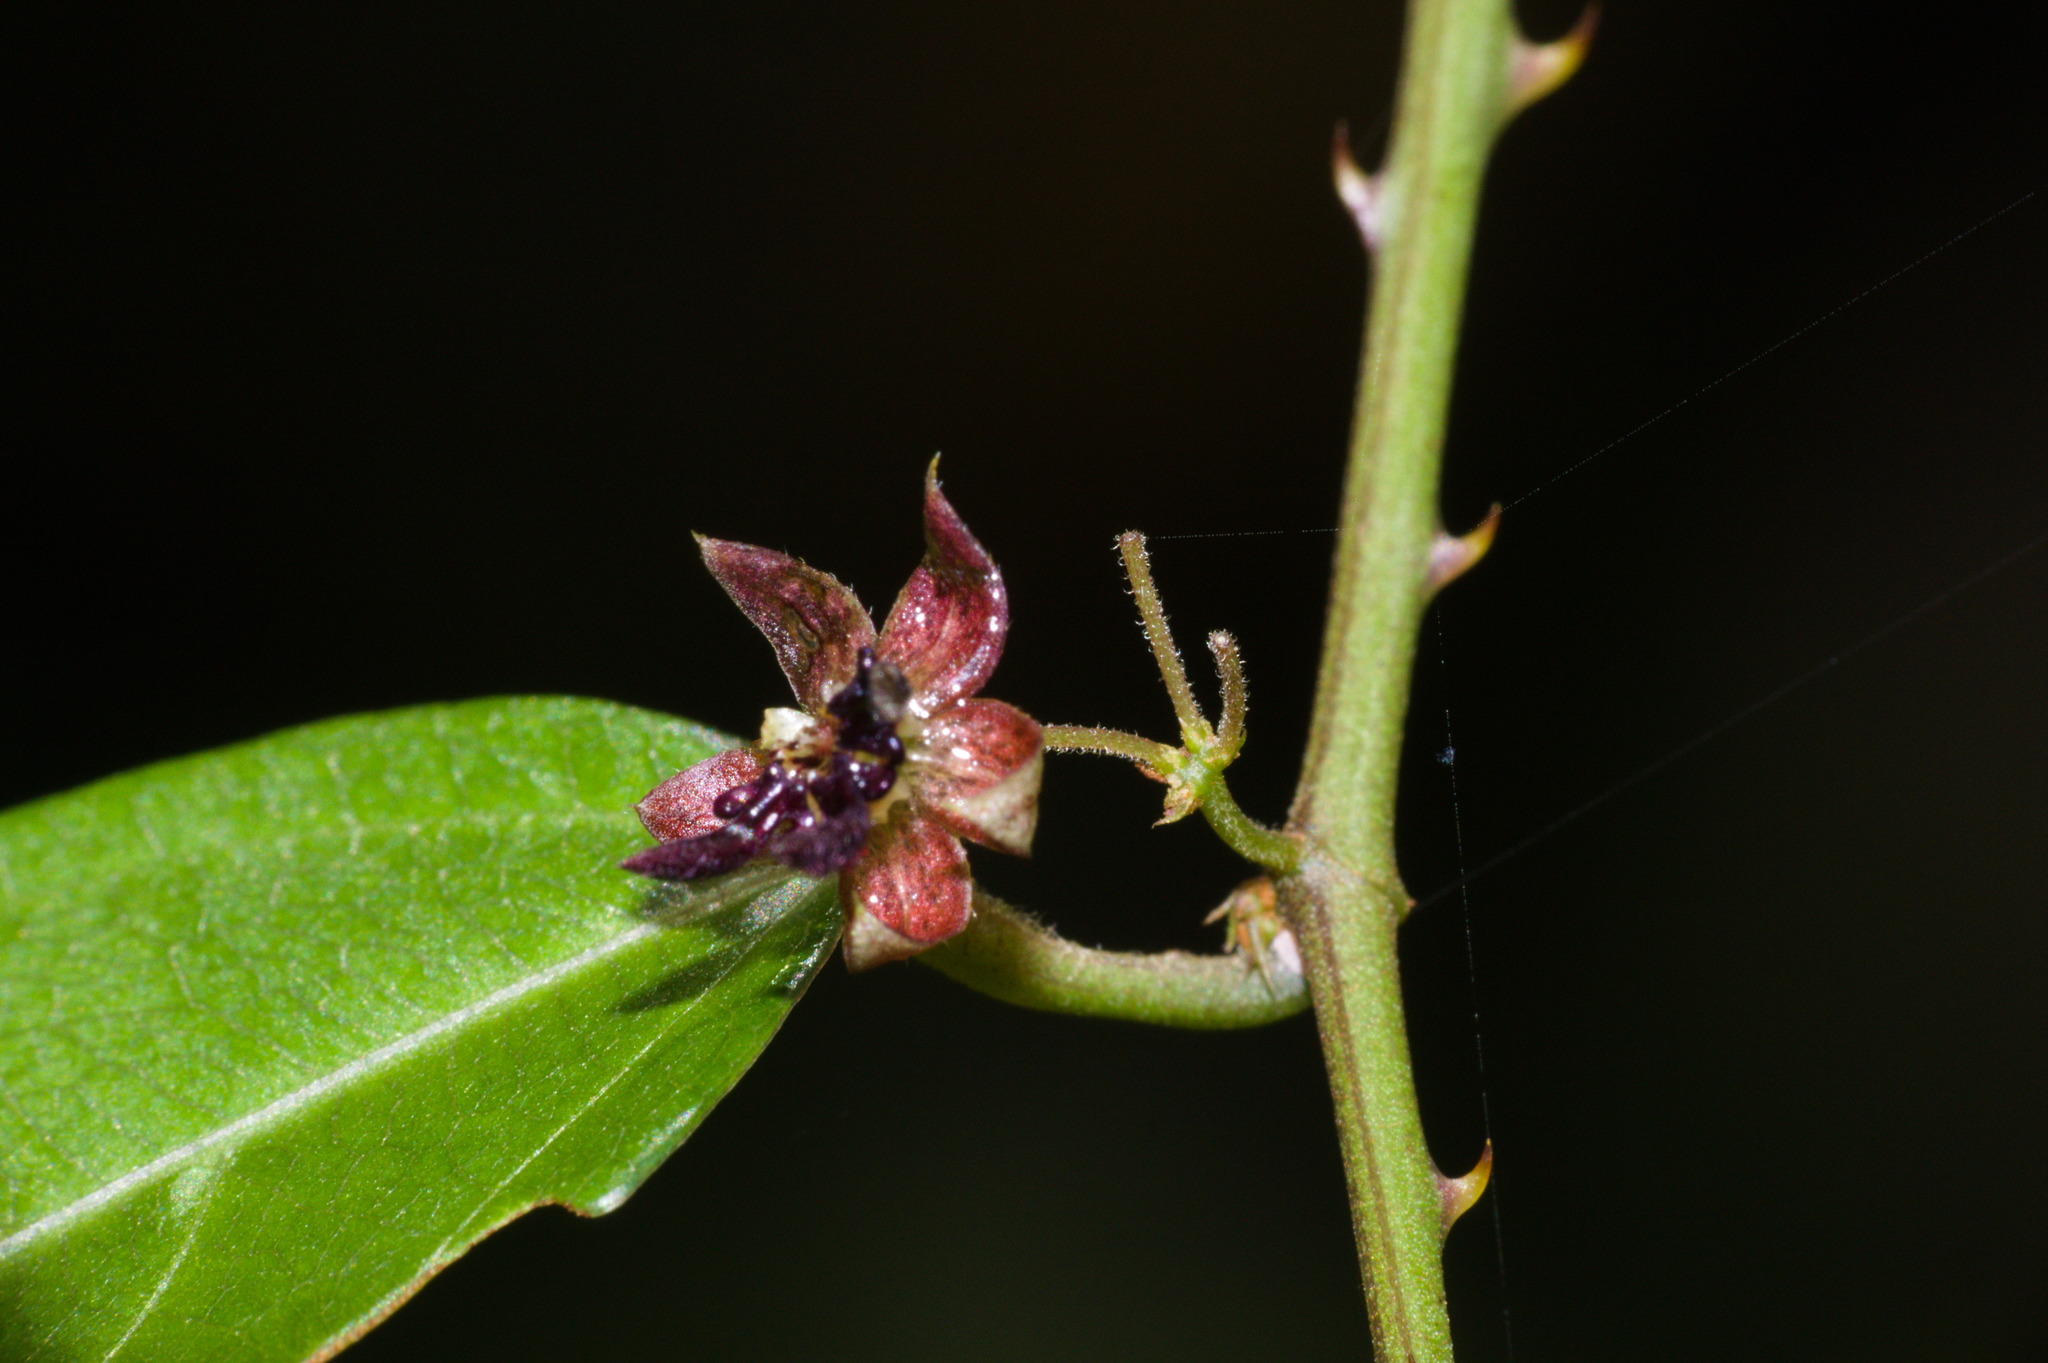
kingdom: Plantae
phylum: Tracheophyta
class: Magnoliopsida
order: Malvales
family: Malvaceae
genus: Byttneria
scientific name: Byttneria australis
